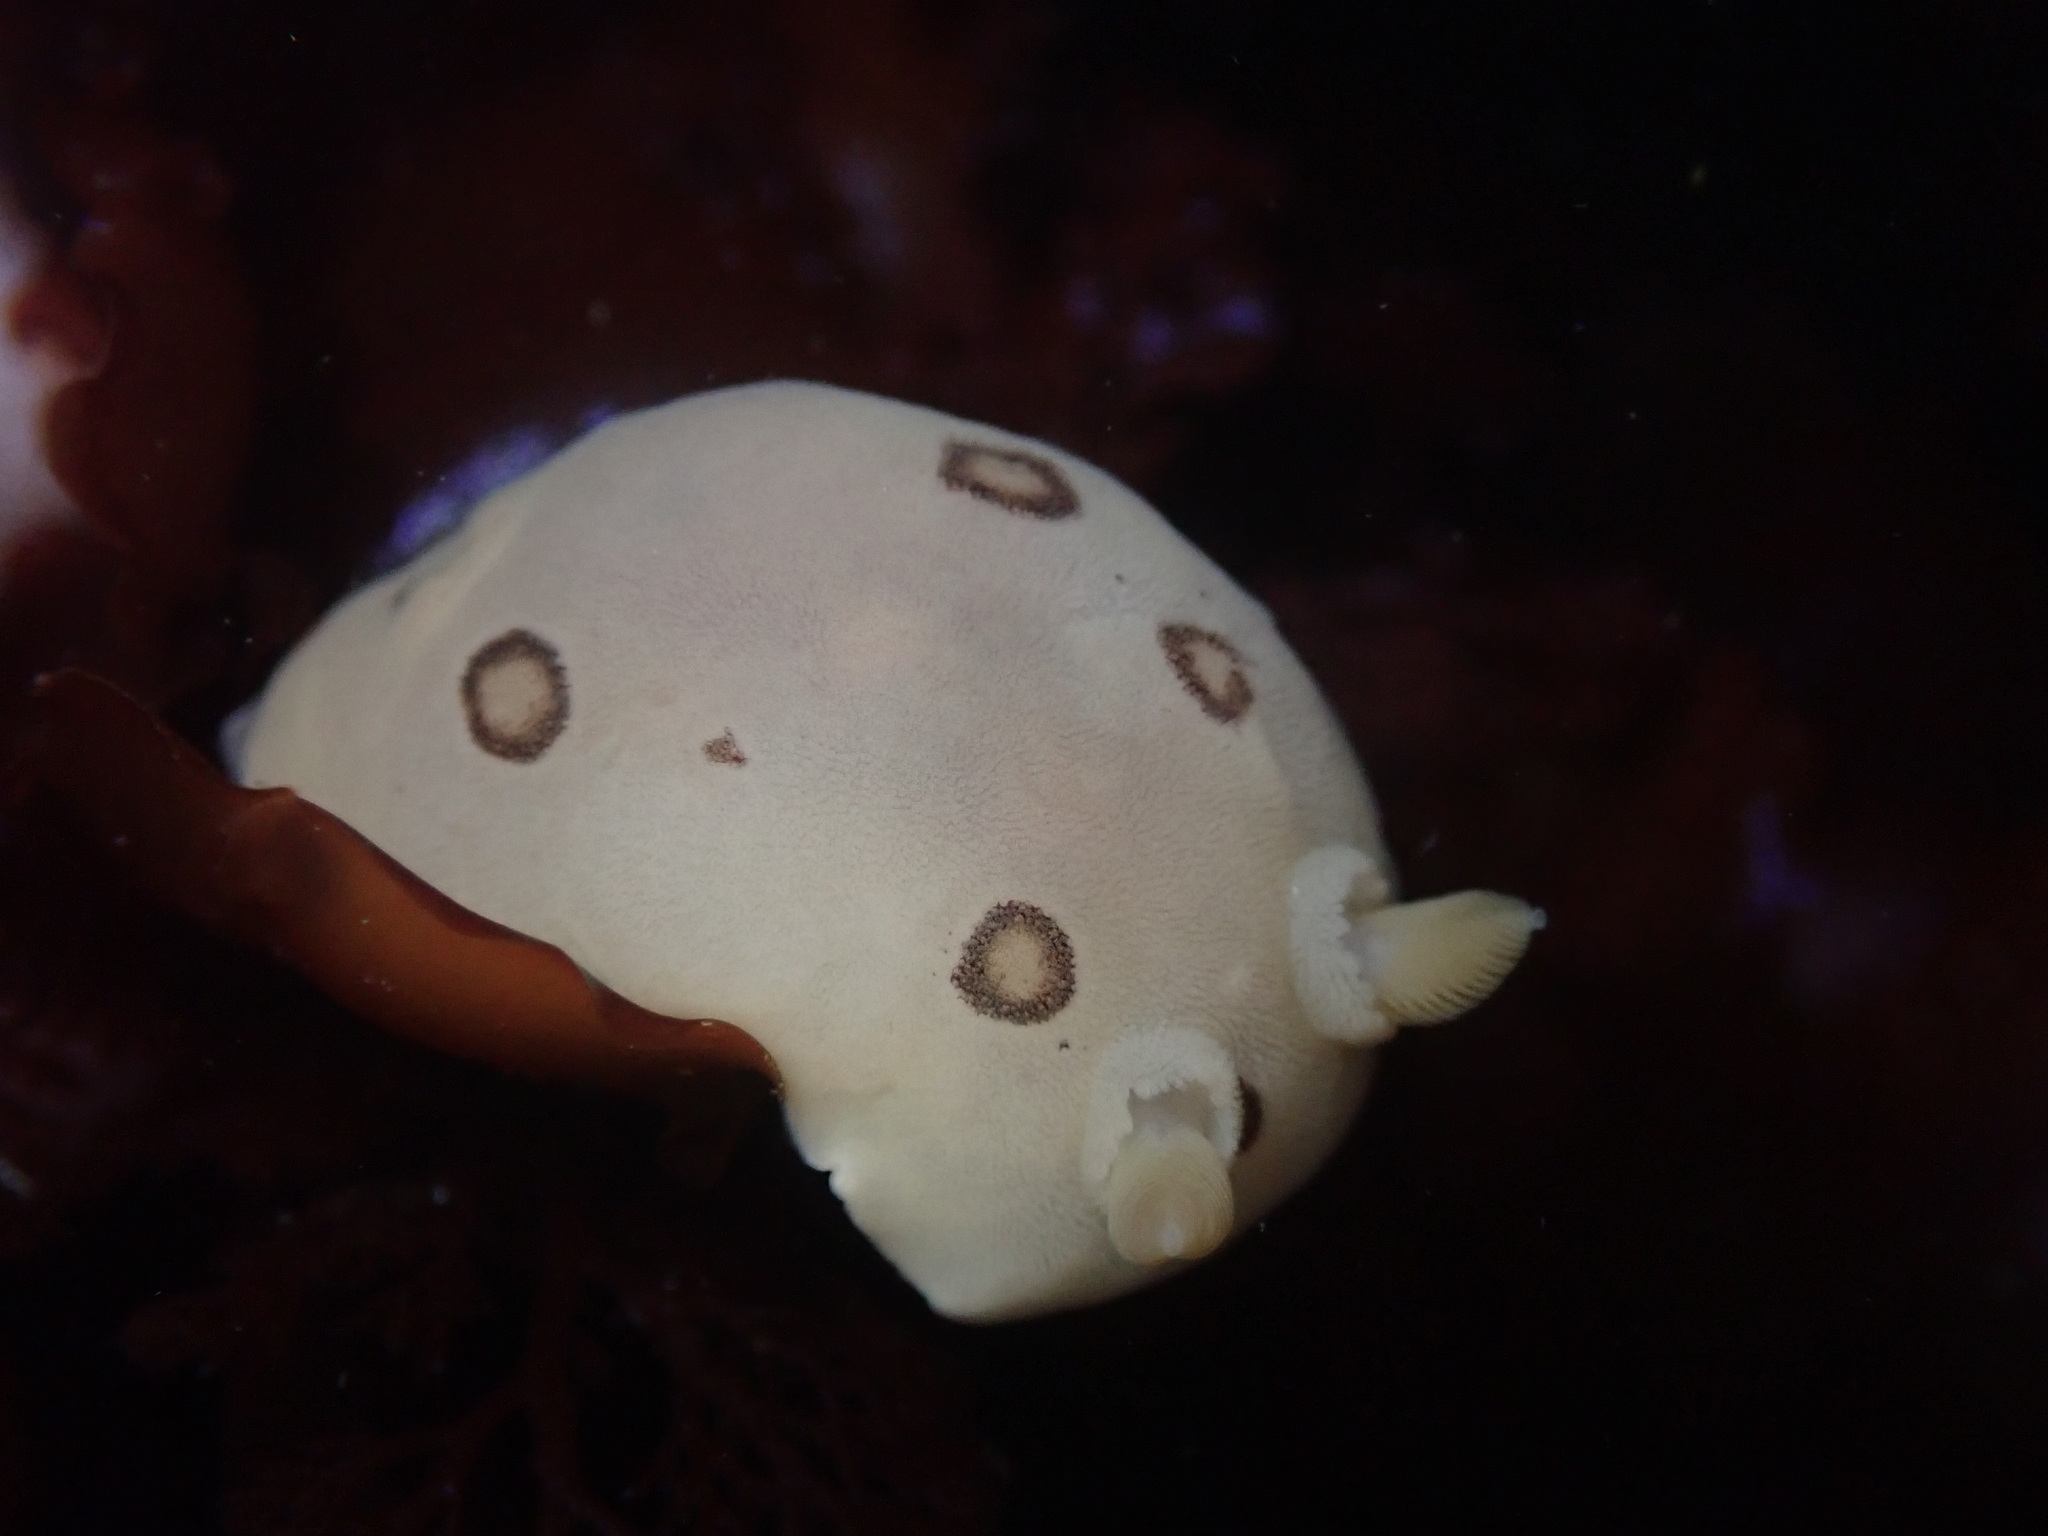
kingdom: Animalia
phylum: Mollusca
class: Gastropoda
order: Nudibranchia
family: Discodorididae
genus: Diaulula
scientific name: Diaulula sandiegensis
